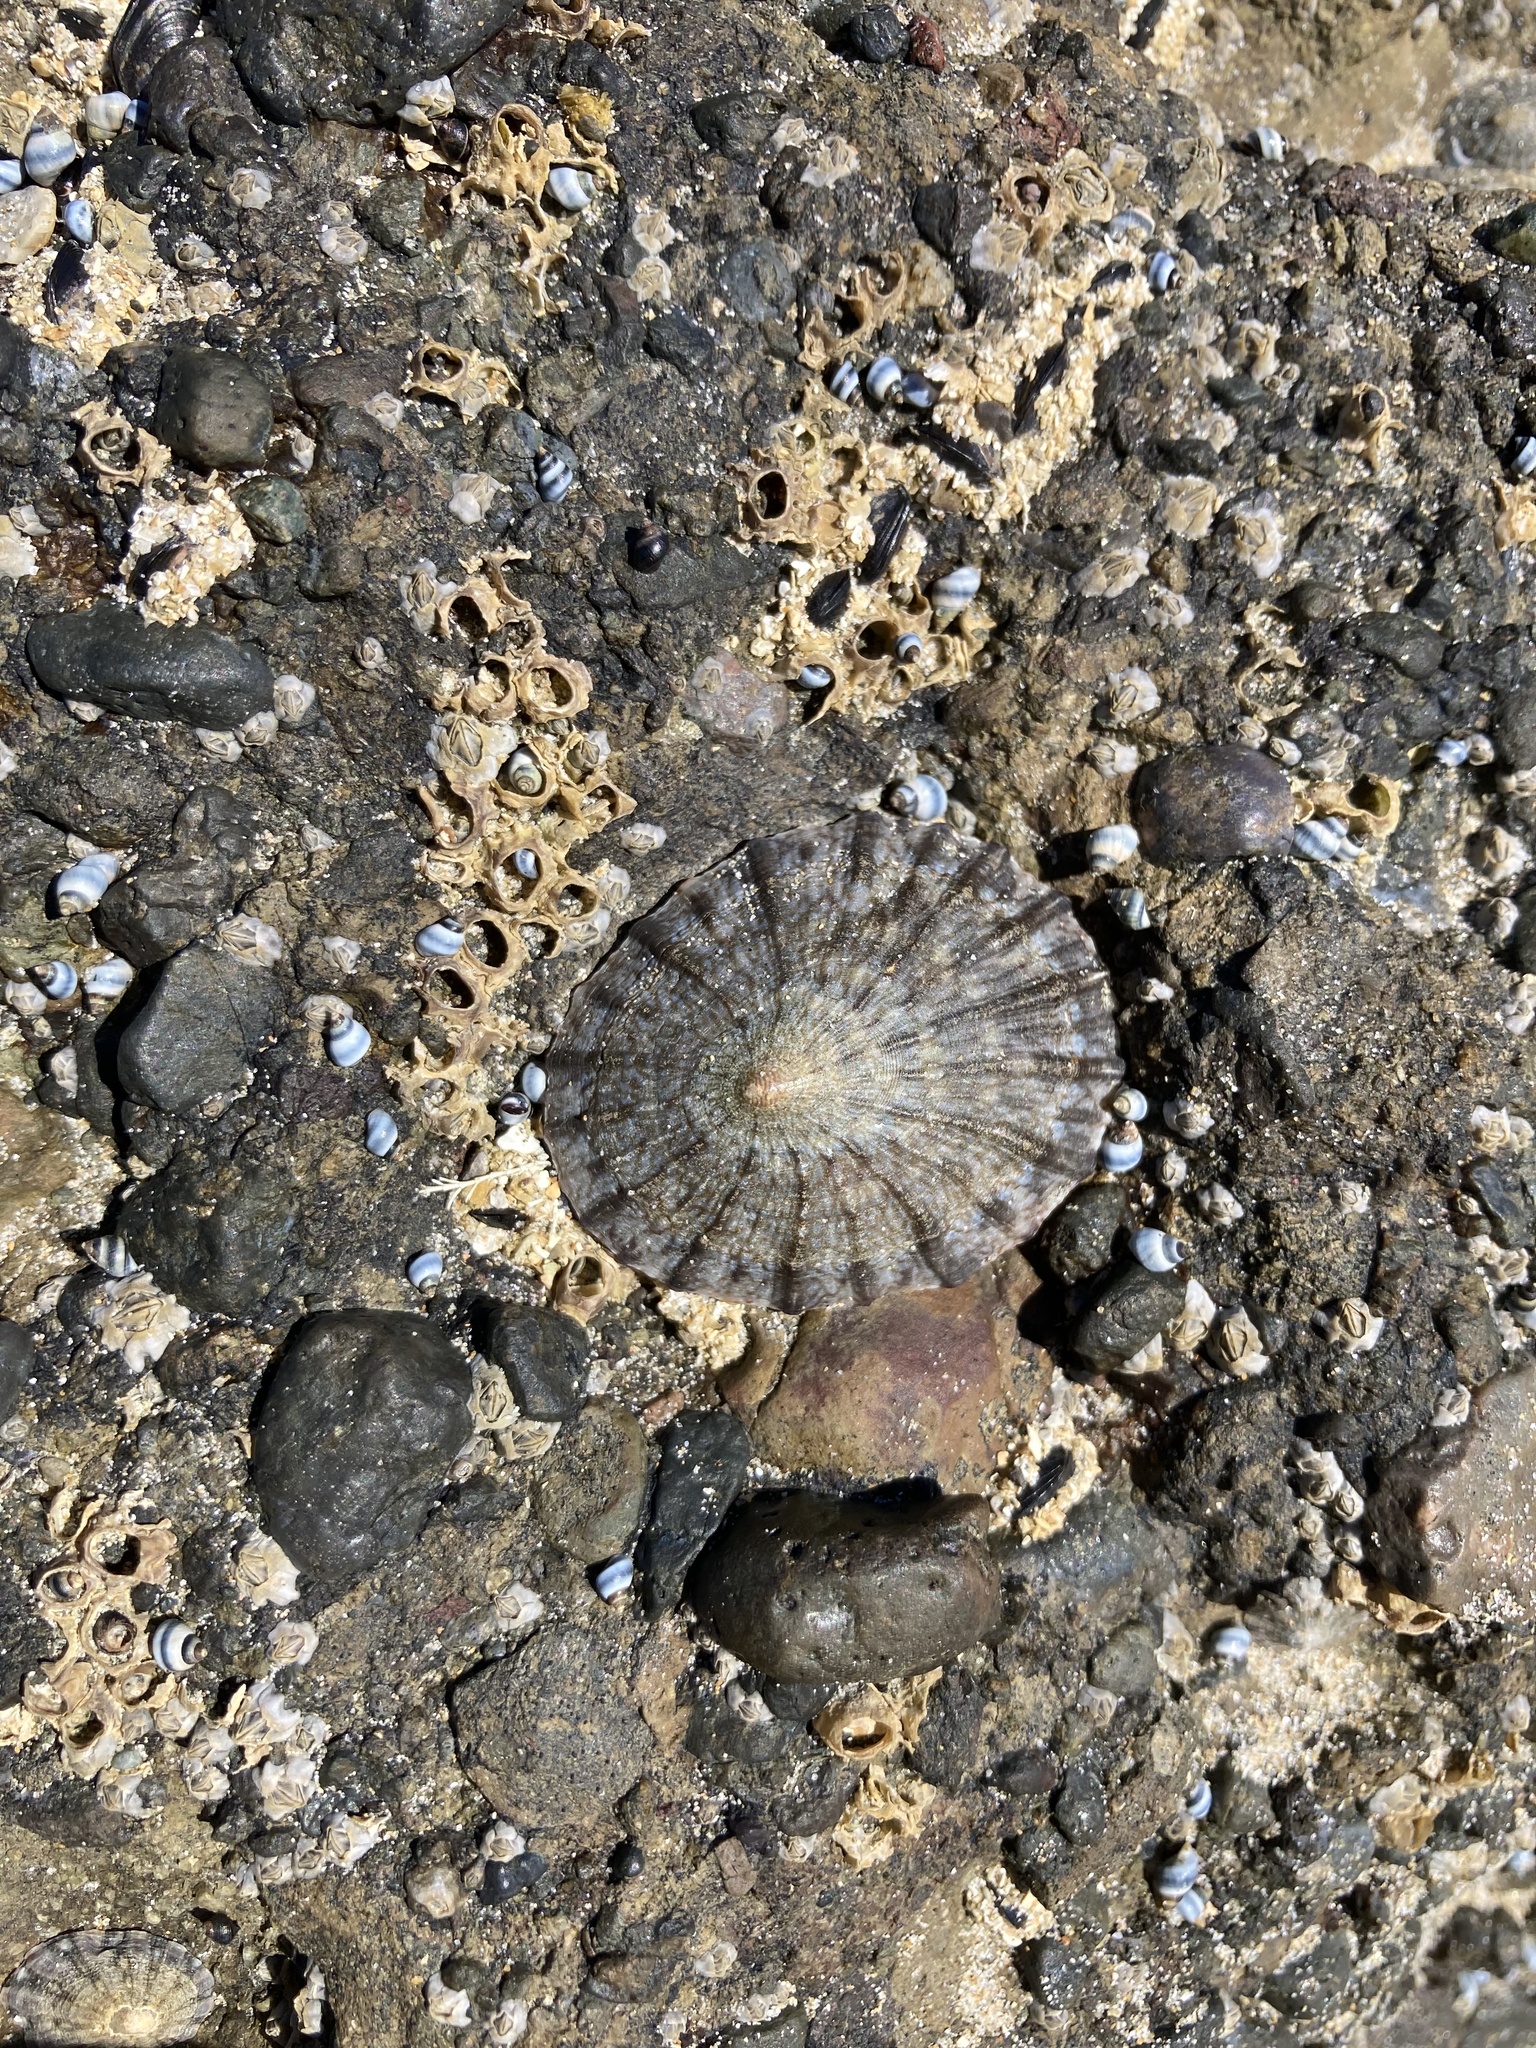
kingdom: Animalia
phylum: Mollusca
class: Gastropoda
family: Nacellidae
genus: Cellana
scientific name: Cellana radians
